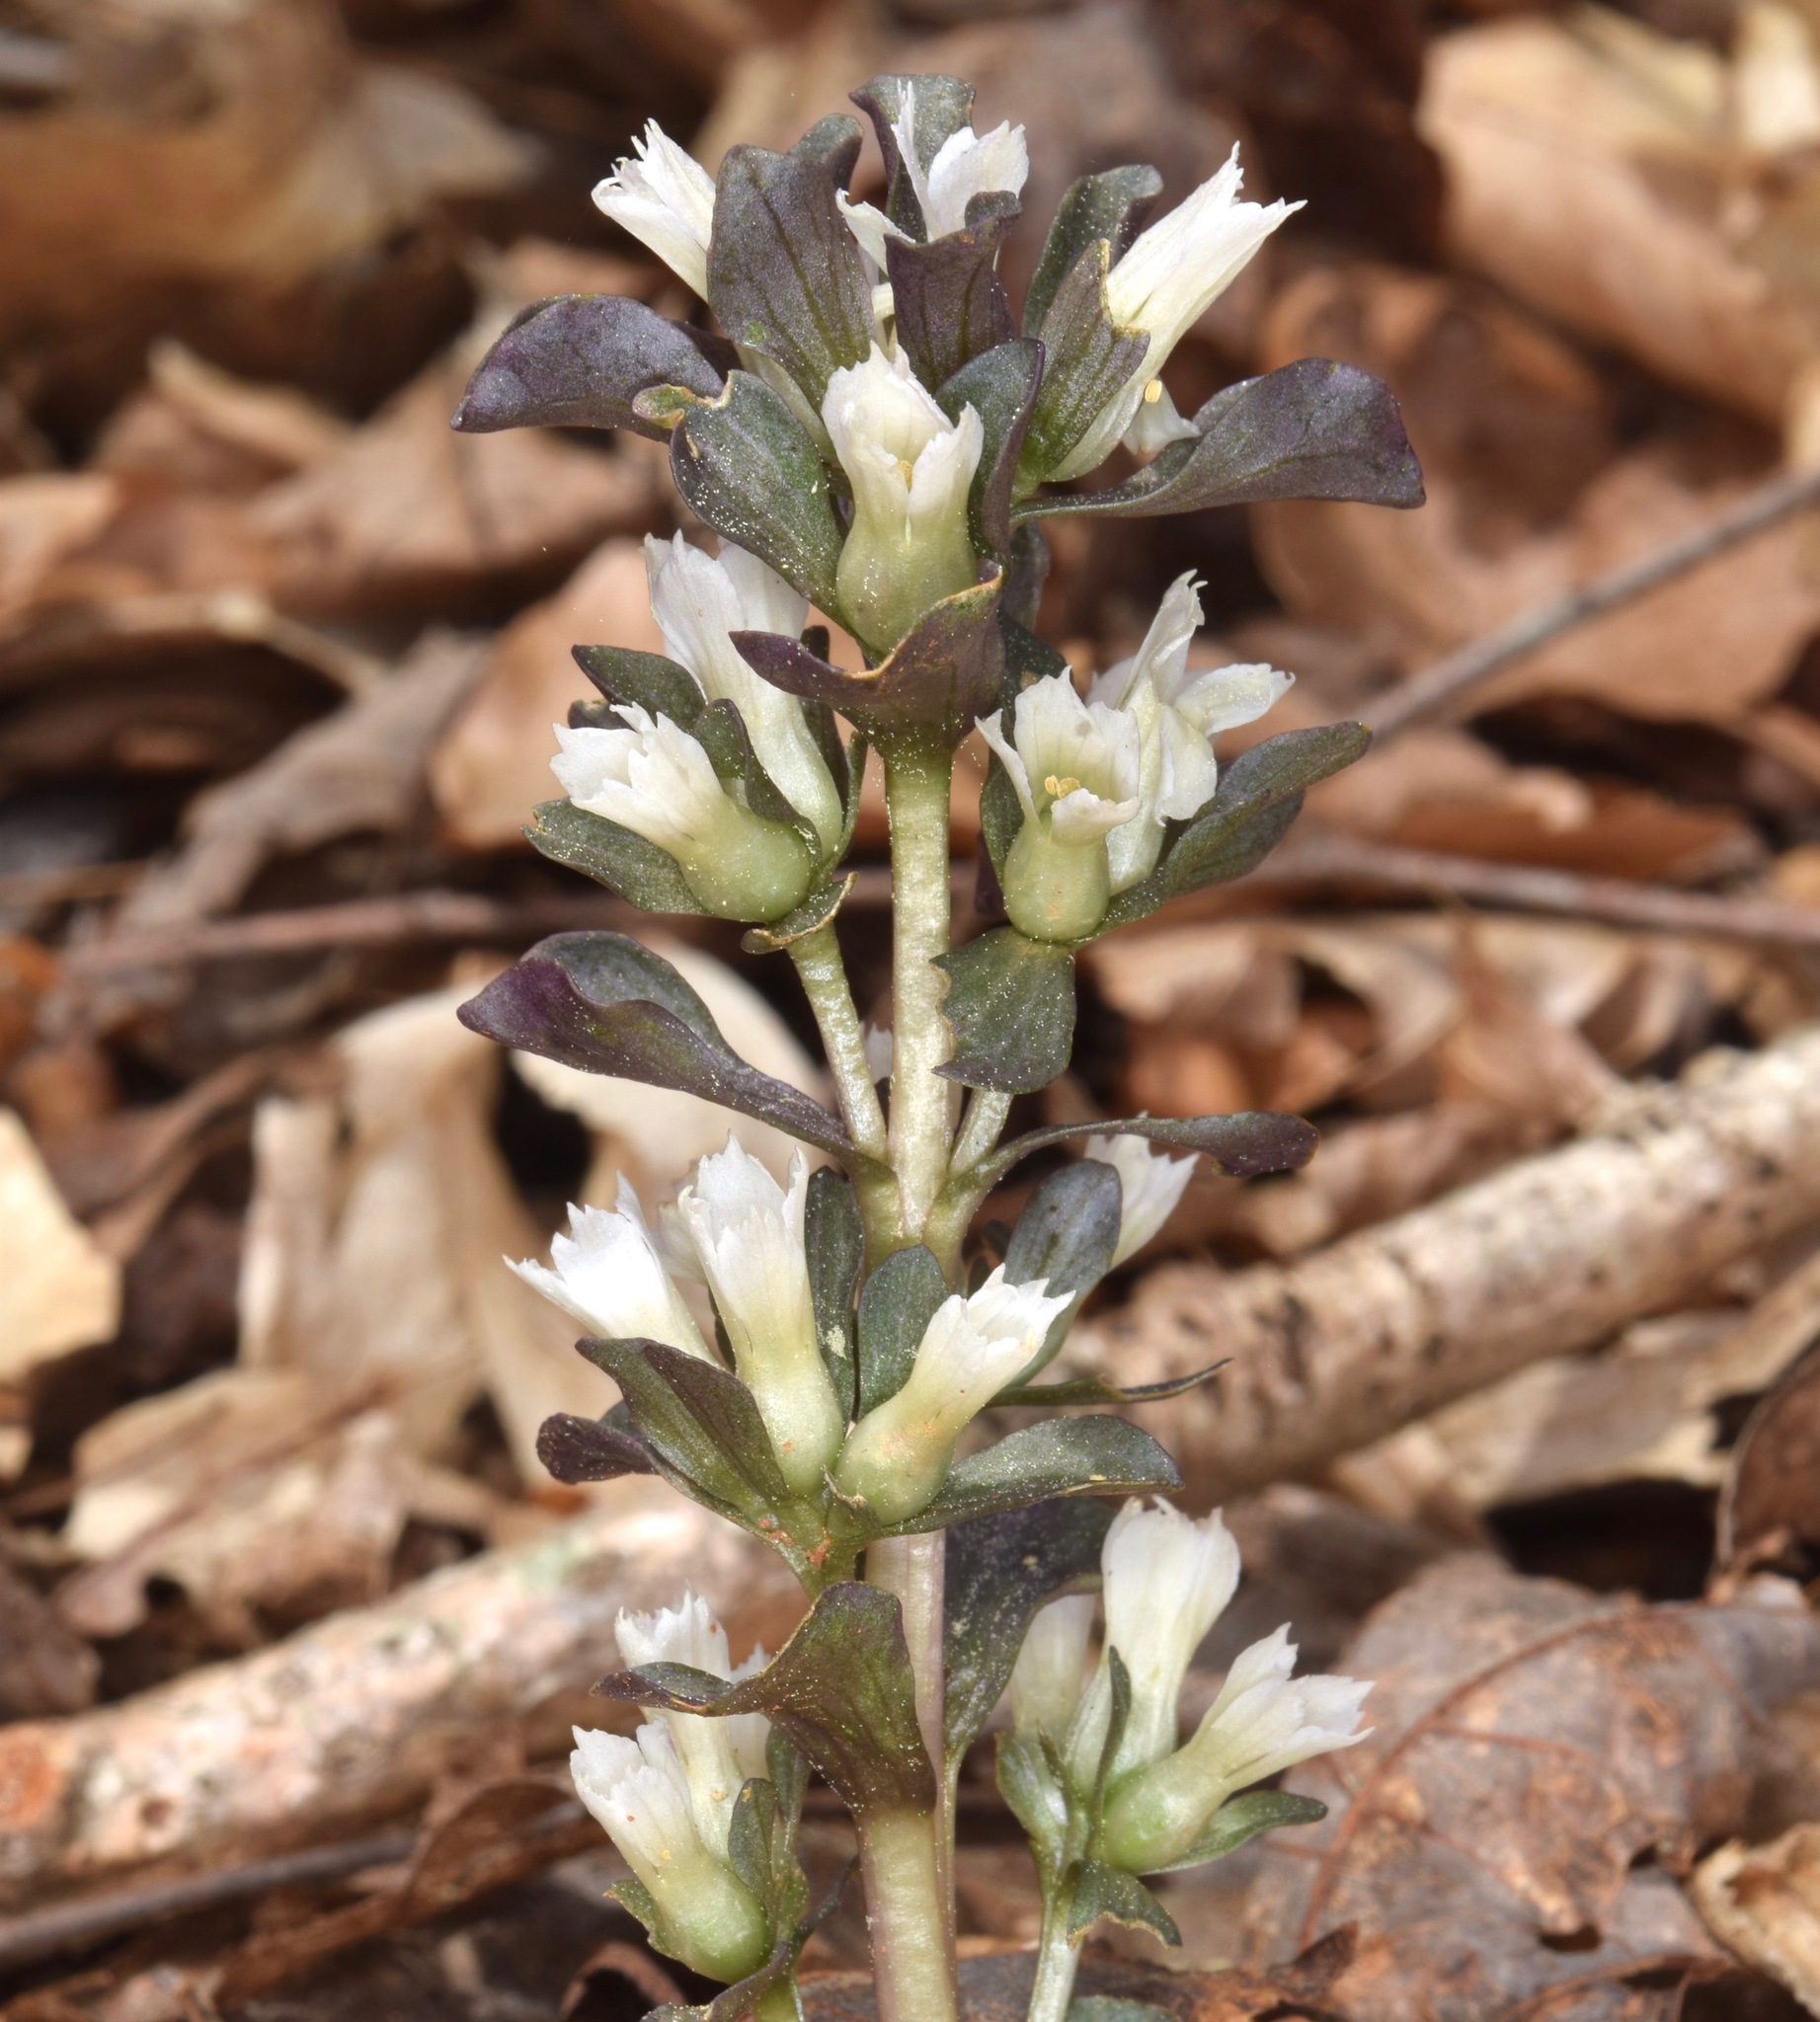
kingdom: Plantae
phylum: Tracheophyta
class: Magnoliopsida
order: Gentianales
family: Gentianaceae
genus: Obolaria
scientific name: Obolaria virginica
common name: Pennywort
